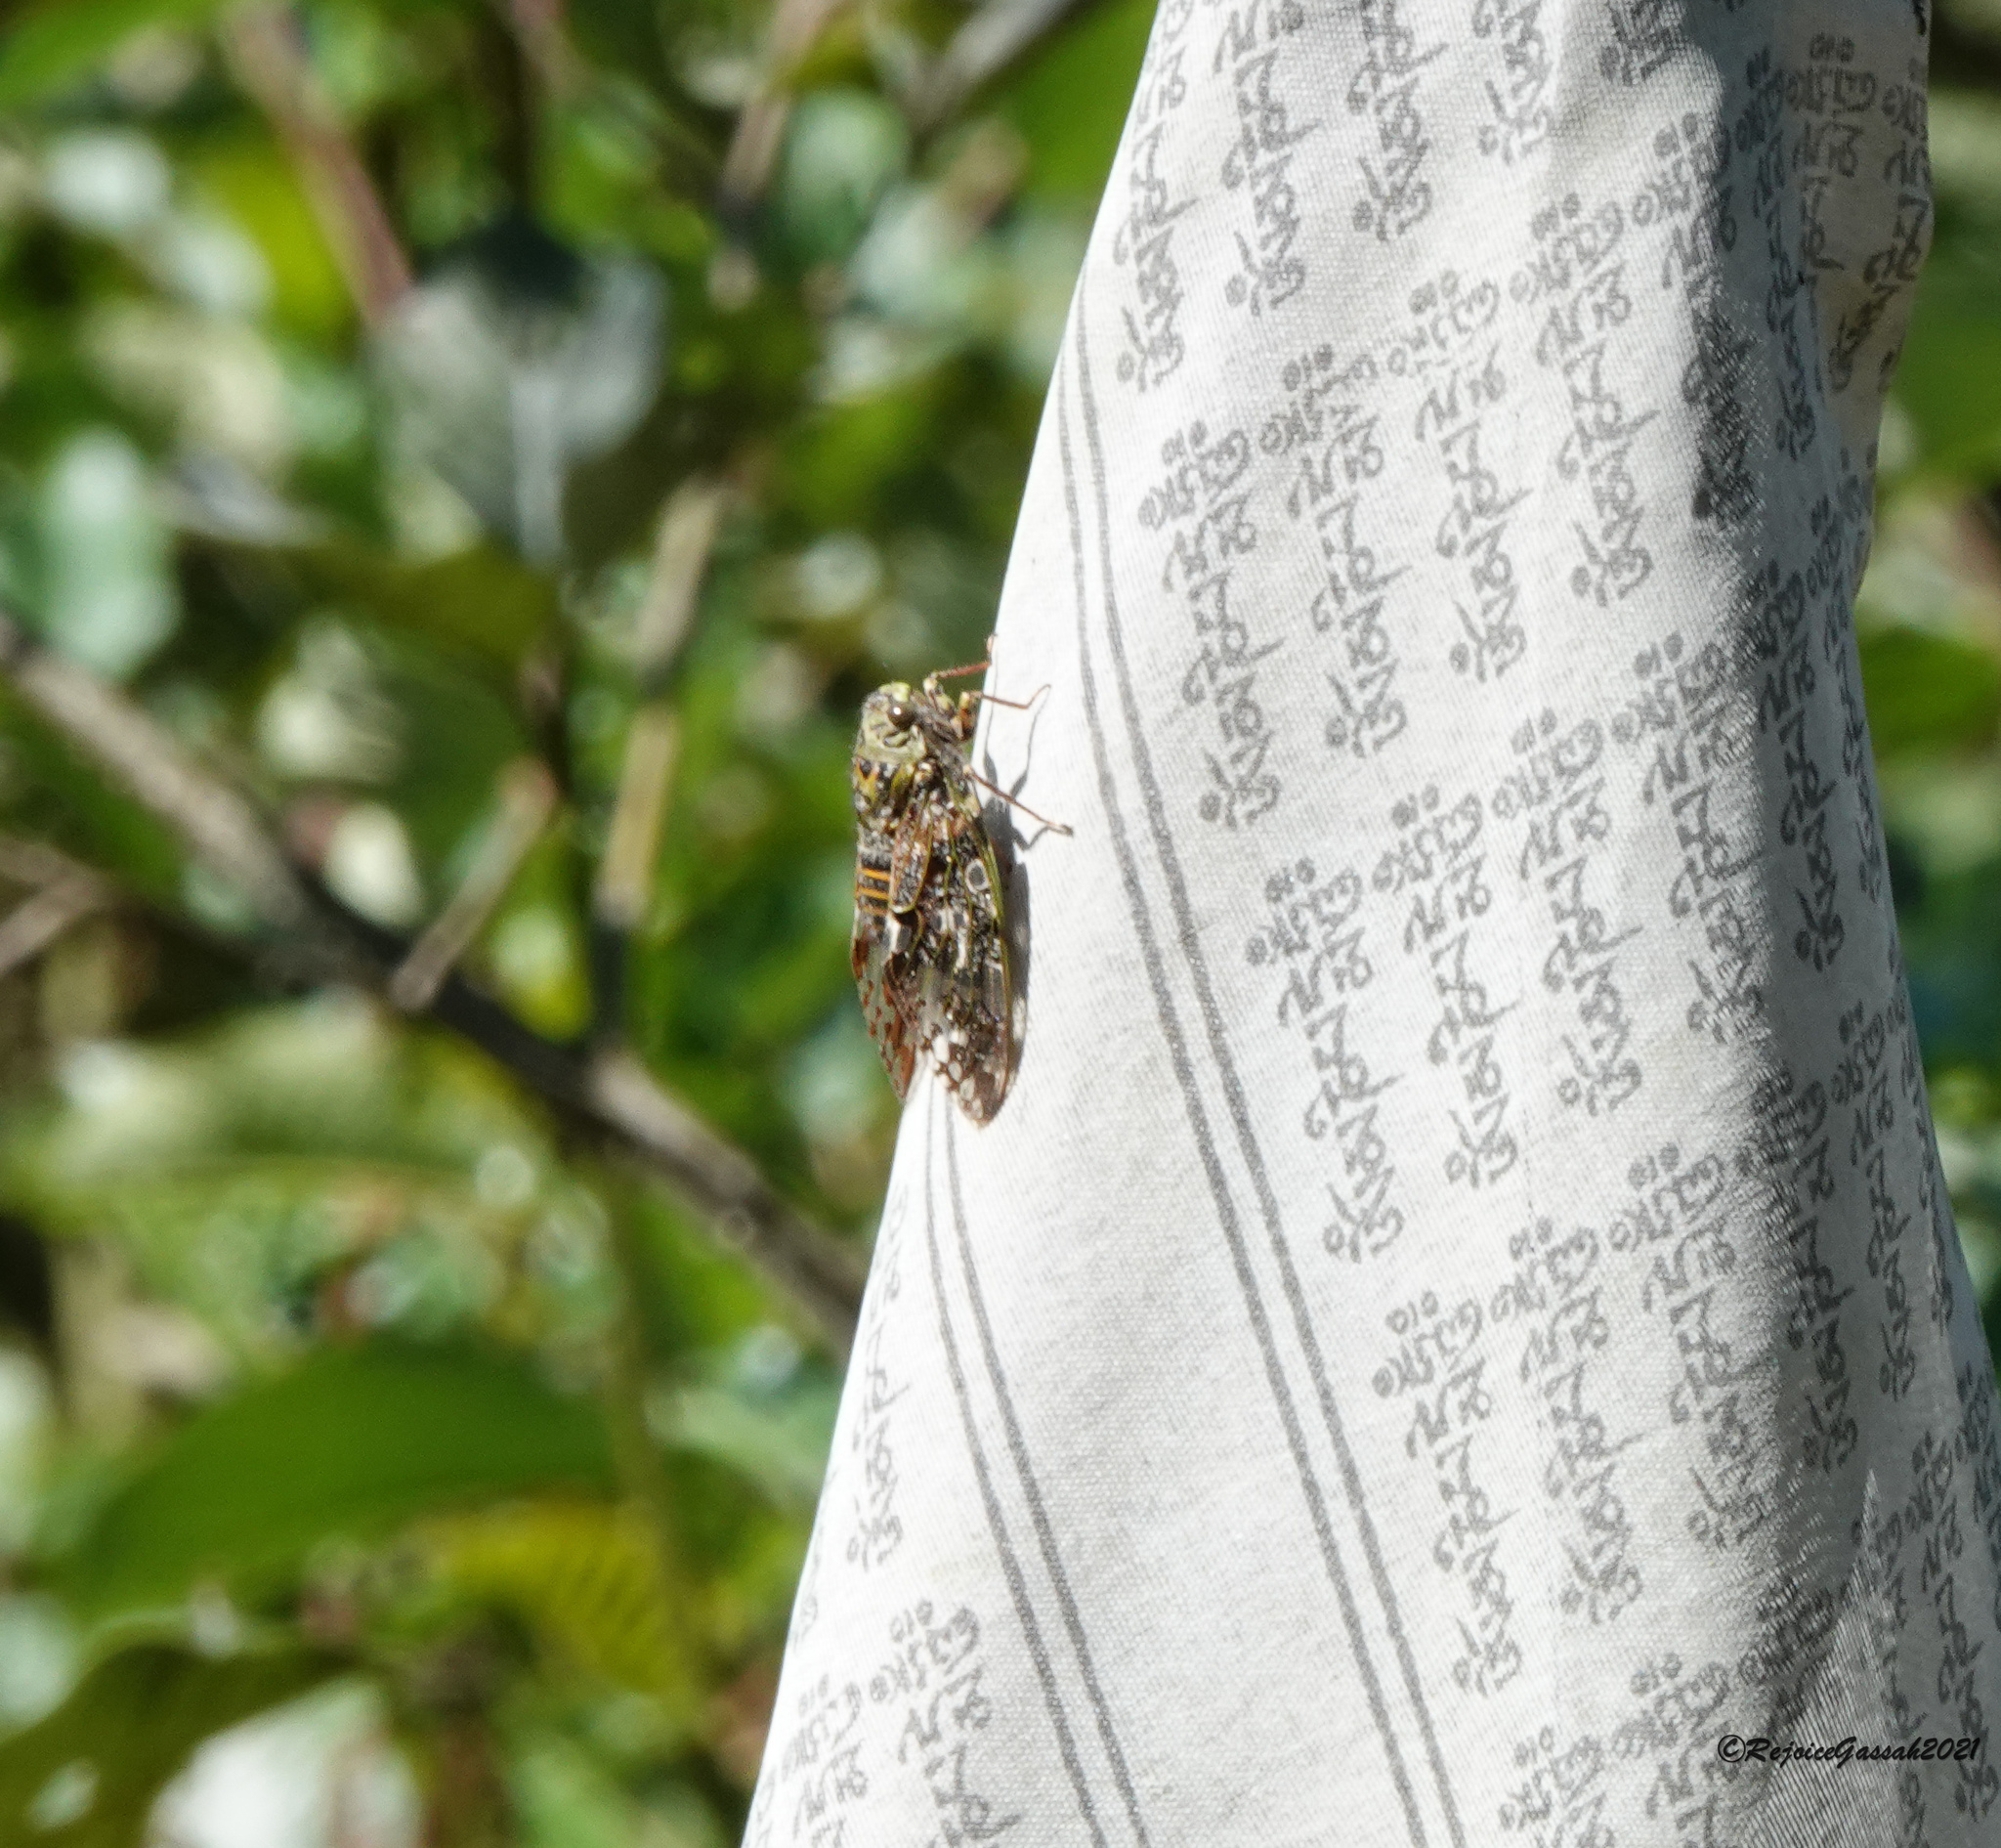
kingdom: Animalia
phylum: Arthropoda
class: Insecta
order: Hemiptera
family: Cicadidae
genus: Eopycna
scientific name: Eopycna repanda
